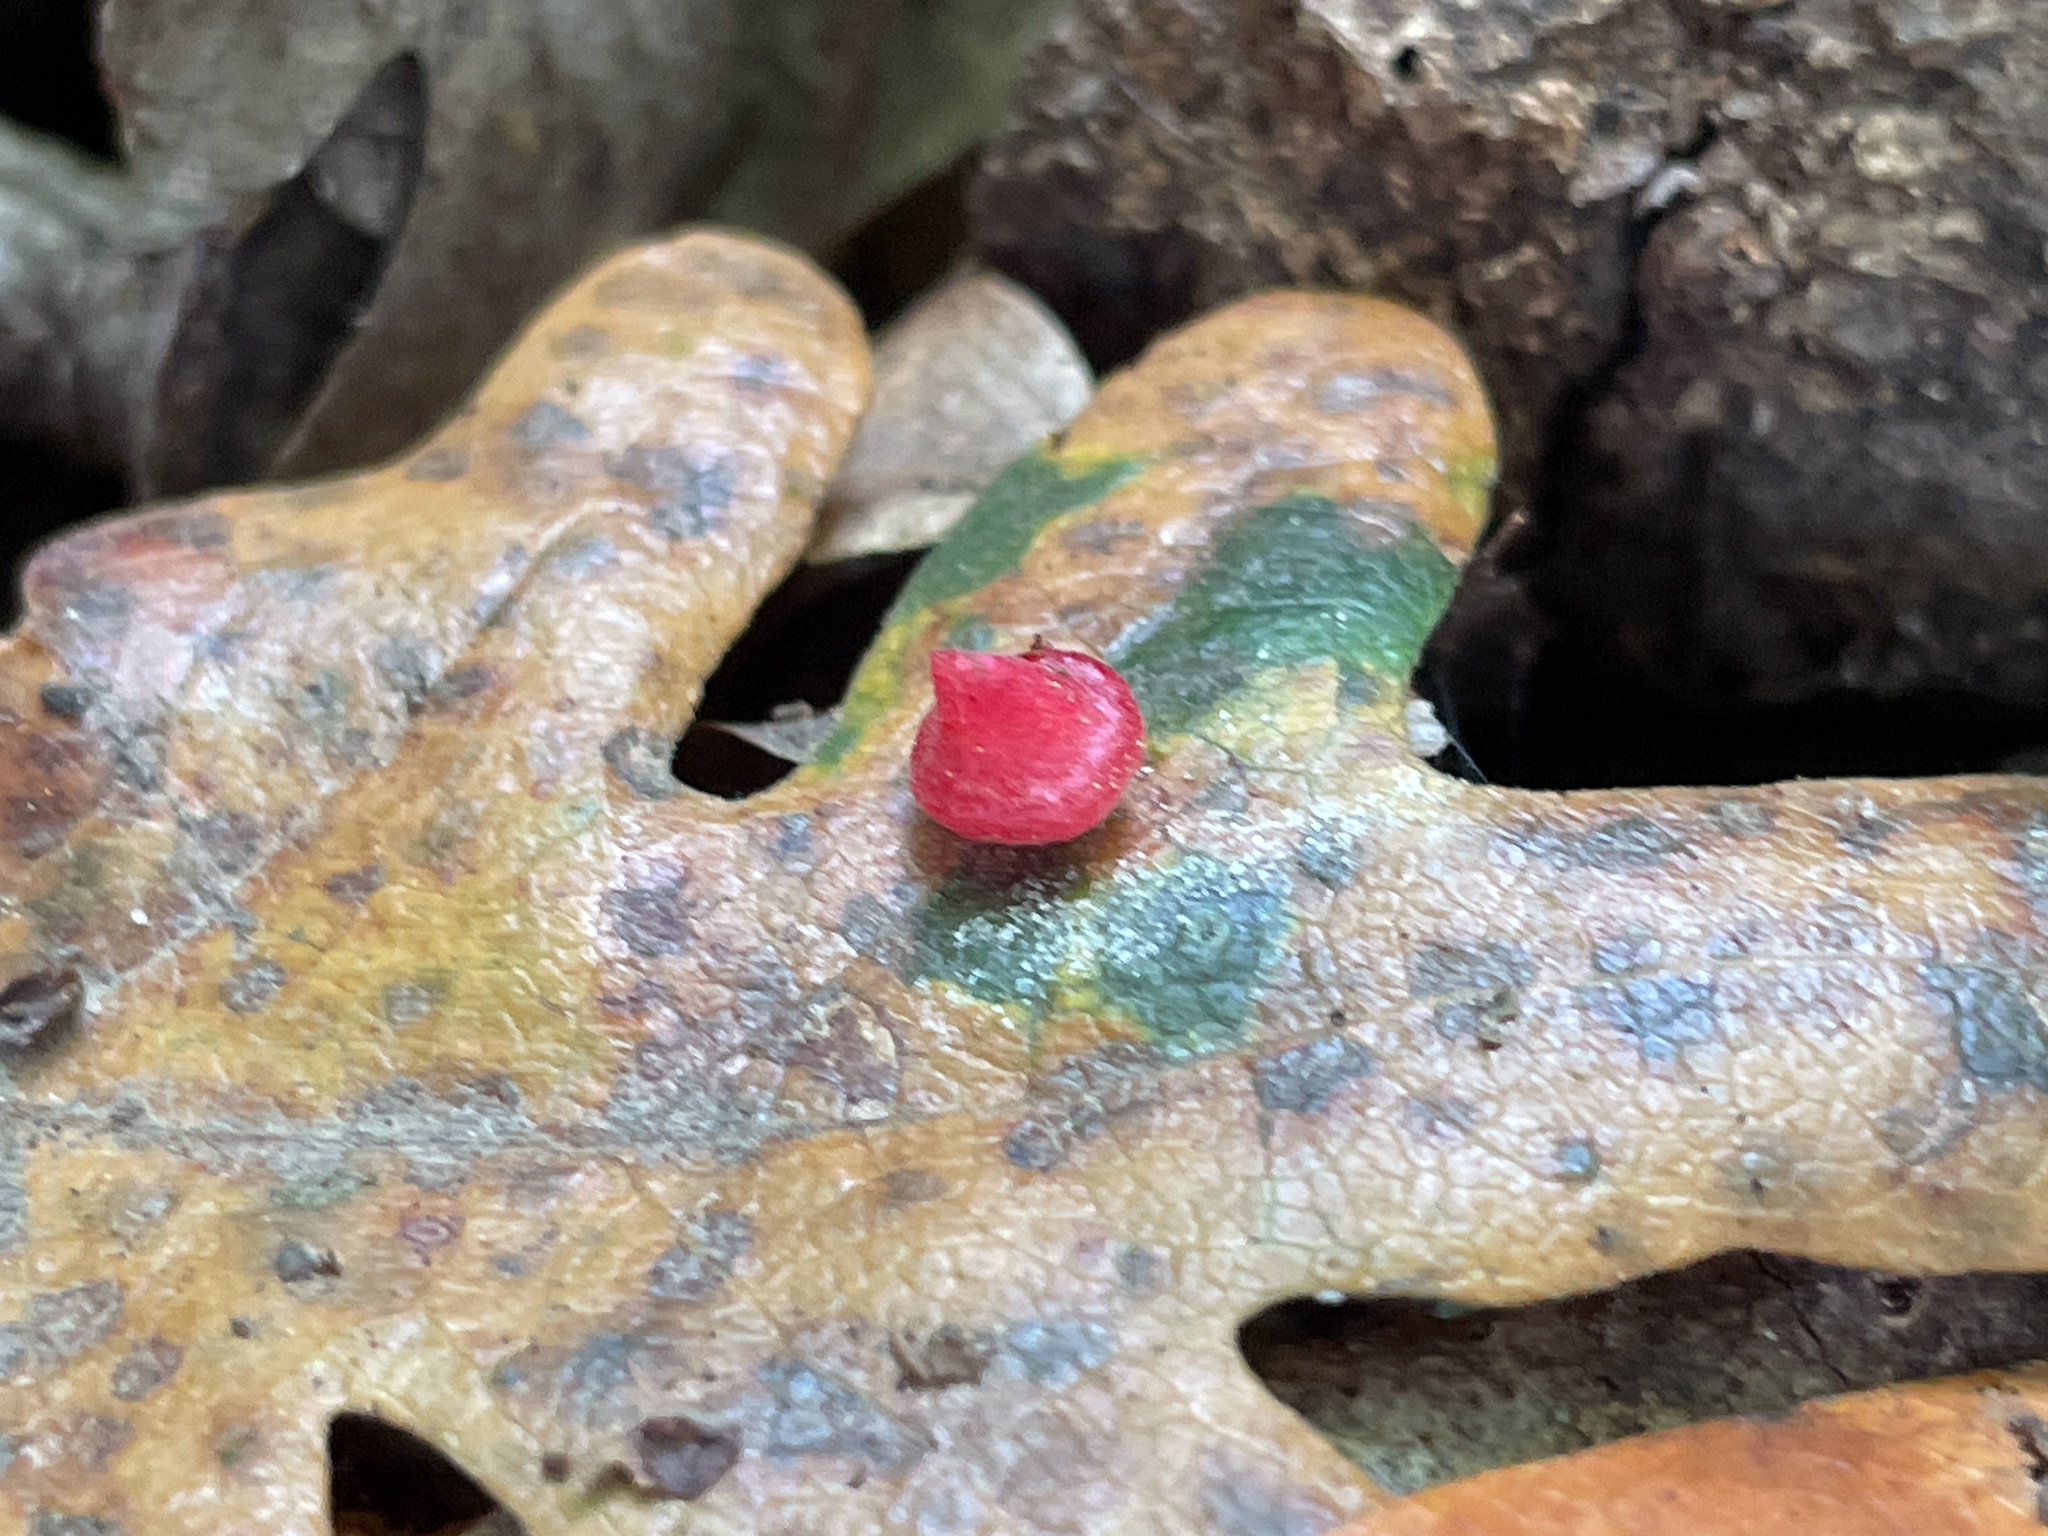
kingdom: Animalia
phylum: Arthropoda
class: Insecta
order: Hymenoptera
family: Cynipidae
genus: Andricus
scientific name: Andricus
